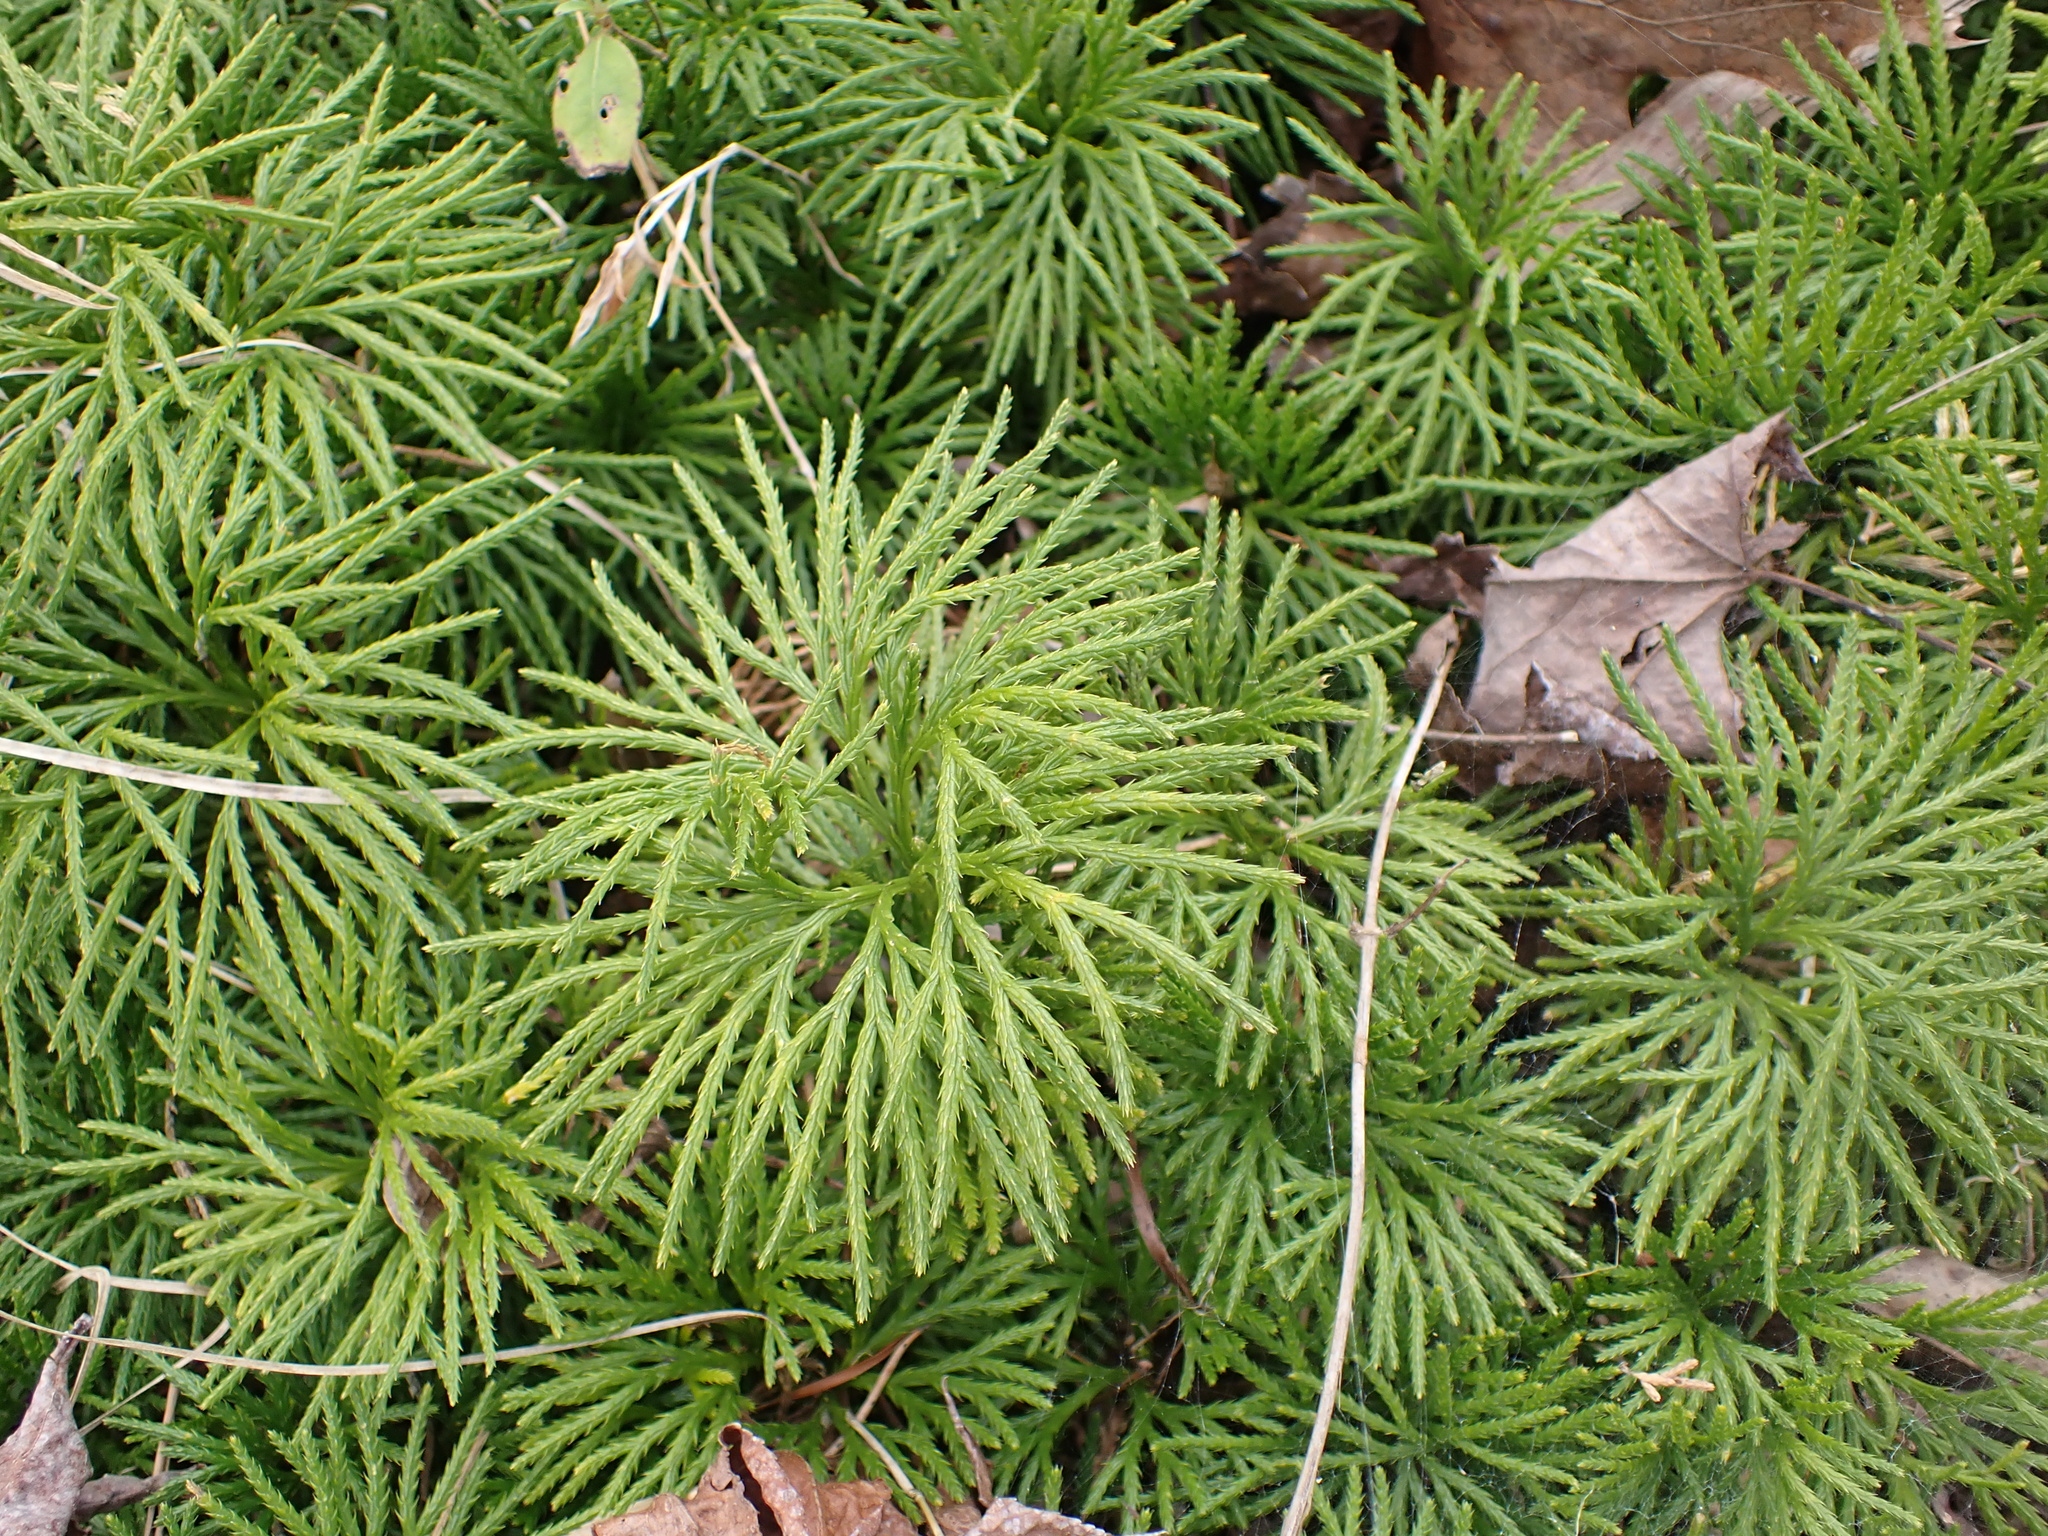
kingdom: Plantae
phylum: Tracheophyta
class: Lycopodiopsida
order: Lycopodiales
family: Lycopodiaceae
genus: Diphasiastrum
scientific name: Diphasiastrum digitatum
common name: Southern running-pine
